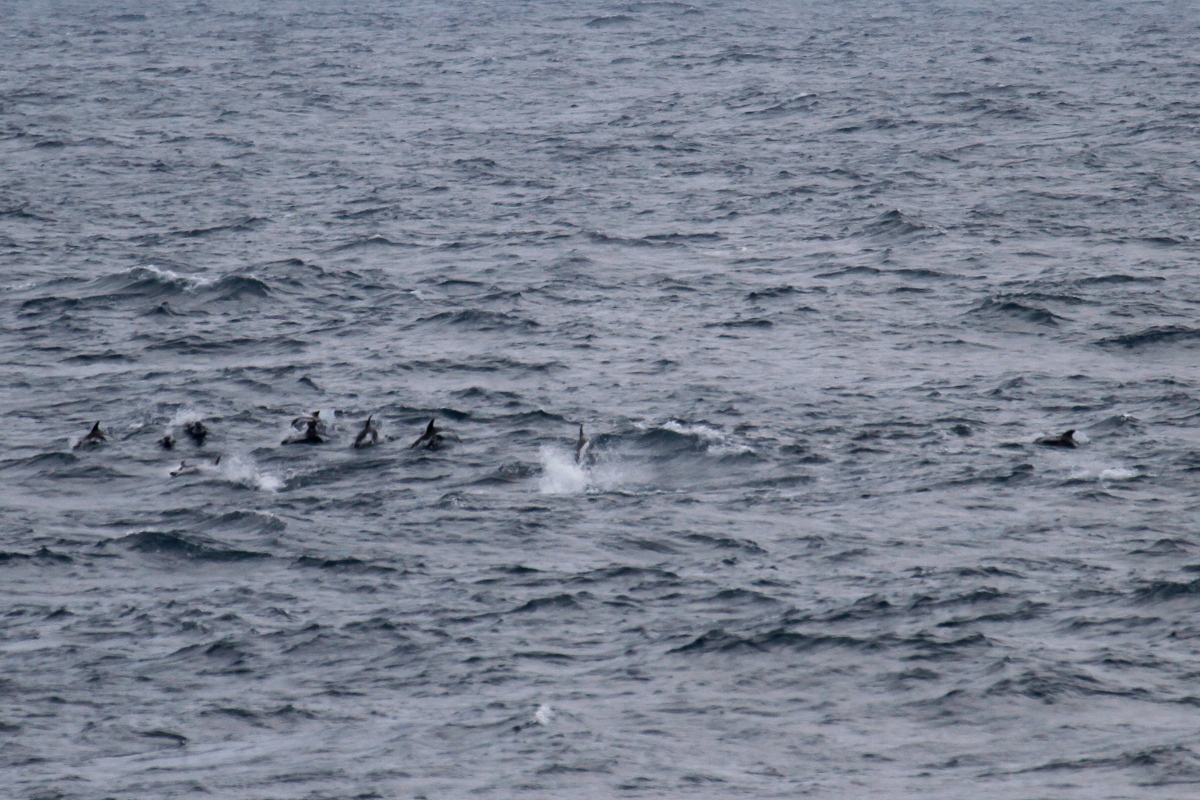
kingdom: Animalia
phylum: Chordata
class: Mammalia
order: Cetacea
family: Delphinidae
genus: Lagenorhynchus
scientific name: Lagenorhynchus cruciger
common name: Hourglass dolphin
